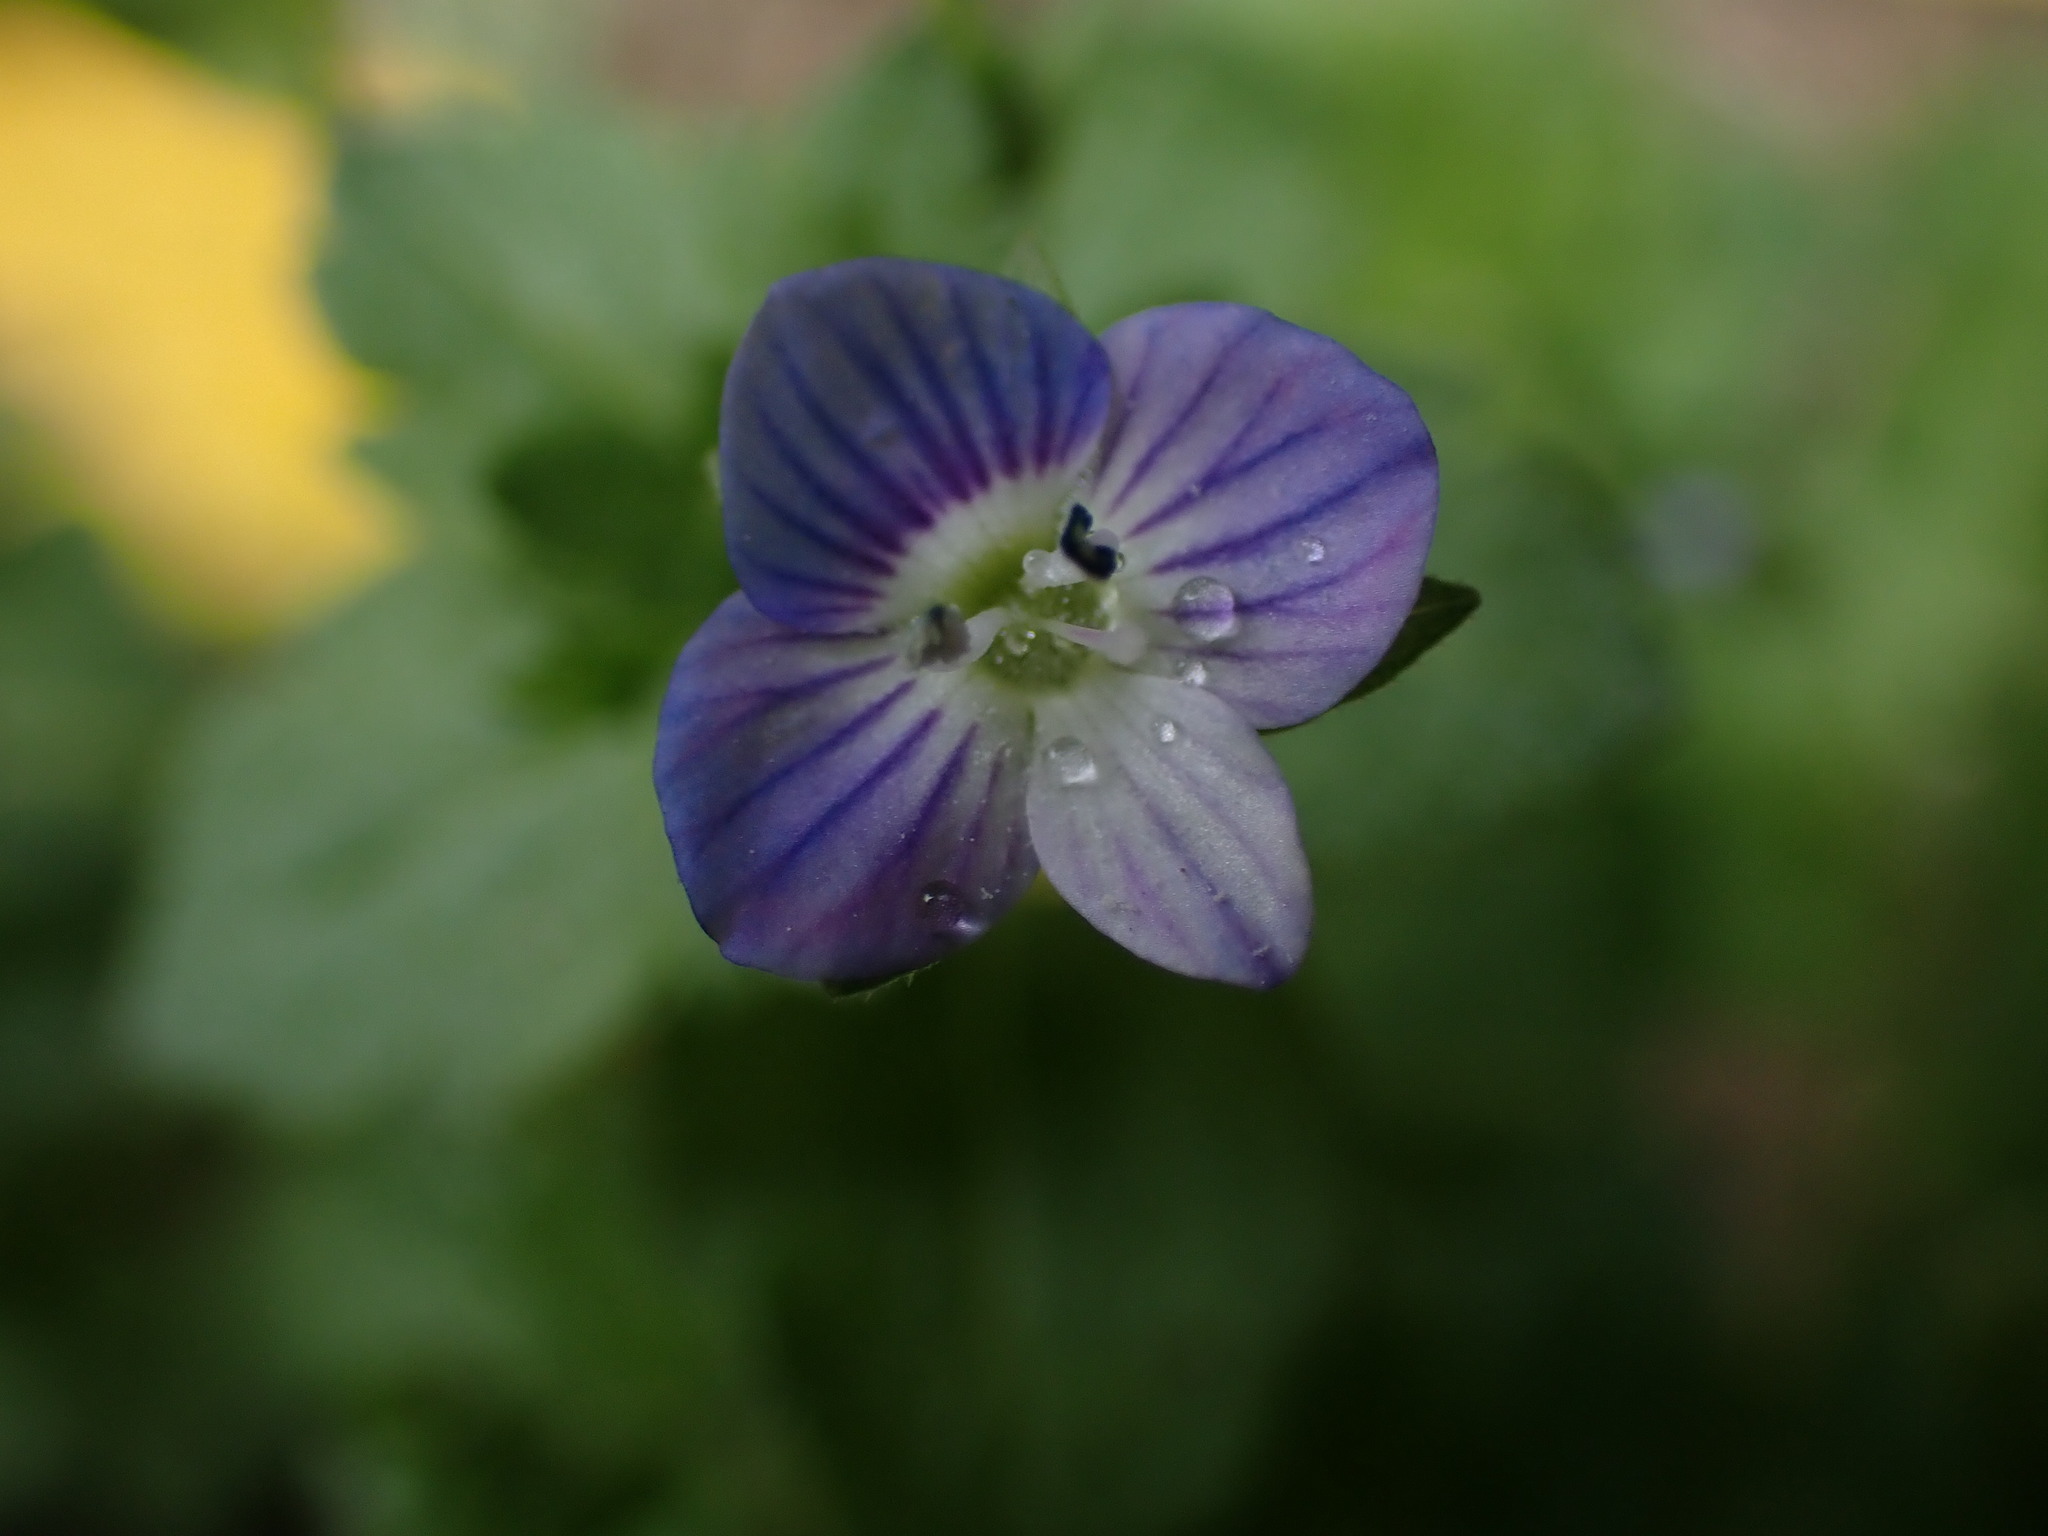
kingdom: Plantae
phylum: Tracheophyta
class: Magnoliopsida
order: Lamiales
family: Plantaginaceae
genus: Veronica
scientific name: Veronica persica
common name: Common field-speedwell
